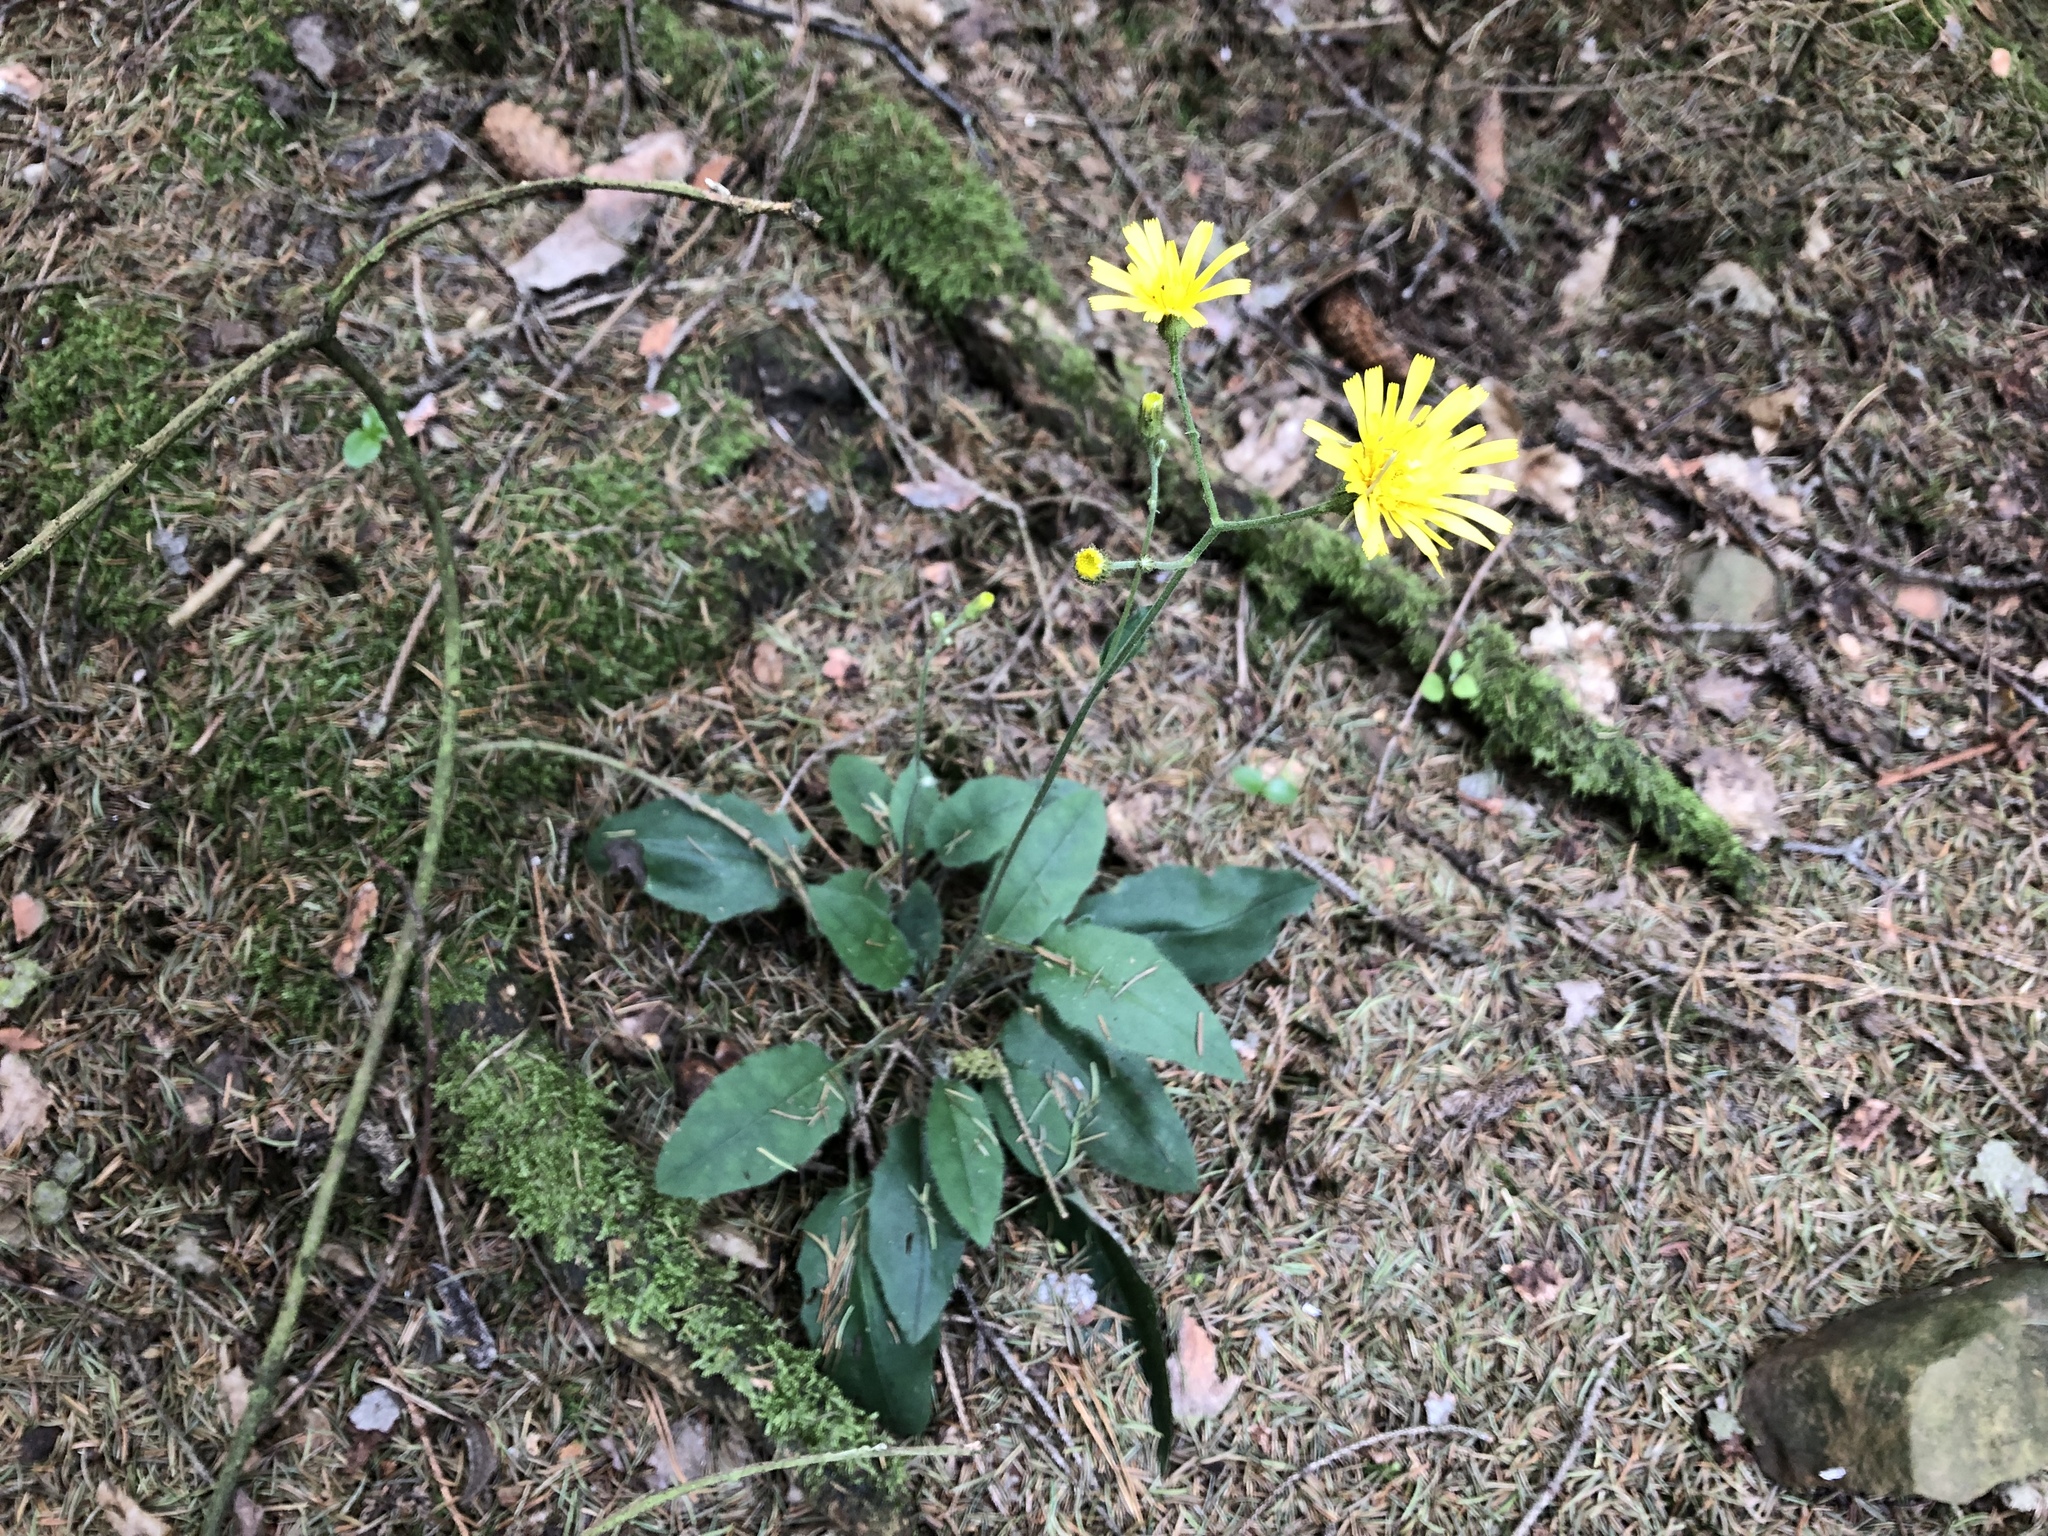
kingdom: Plantae
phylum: Tracheophyta
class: Magnoliopsida
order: Asterales
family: Asteraceae
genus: Hieracium
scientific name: Hieracium murorum
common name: Wall hawkweed
